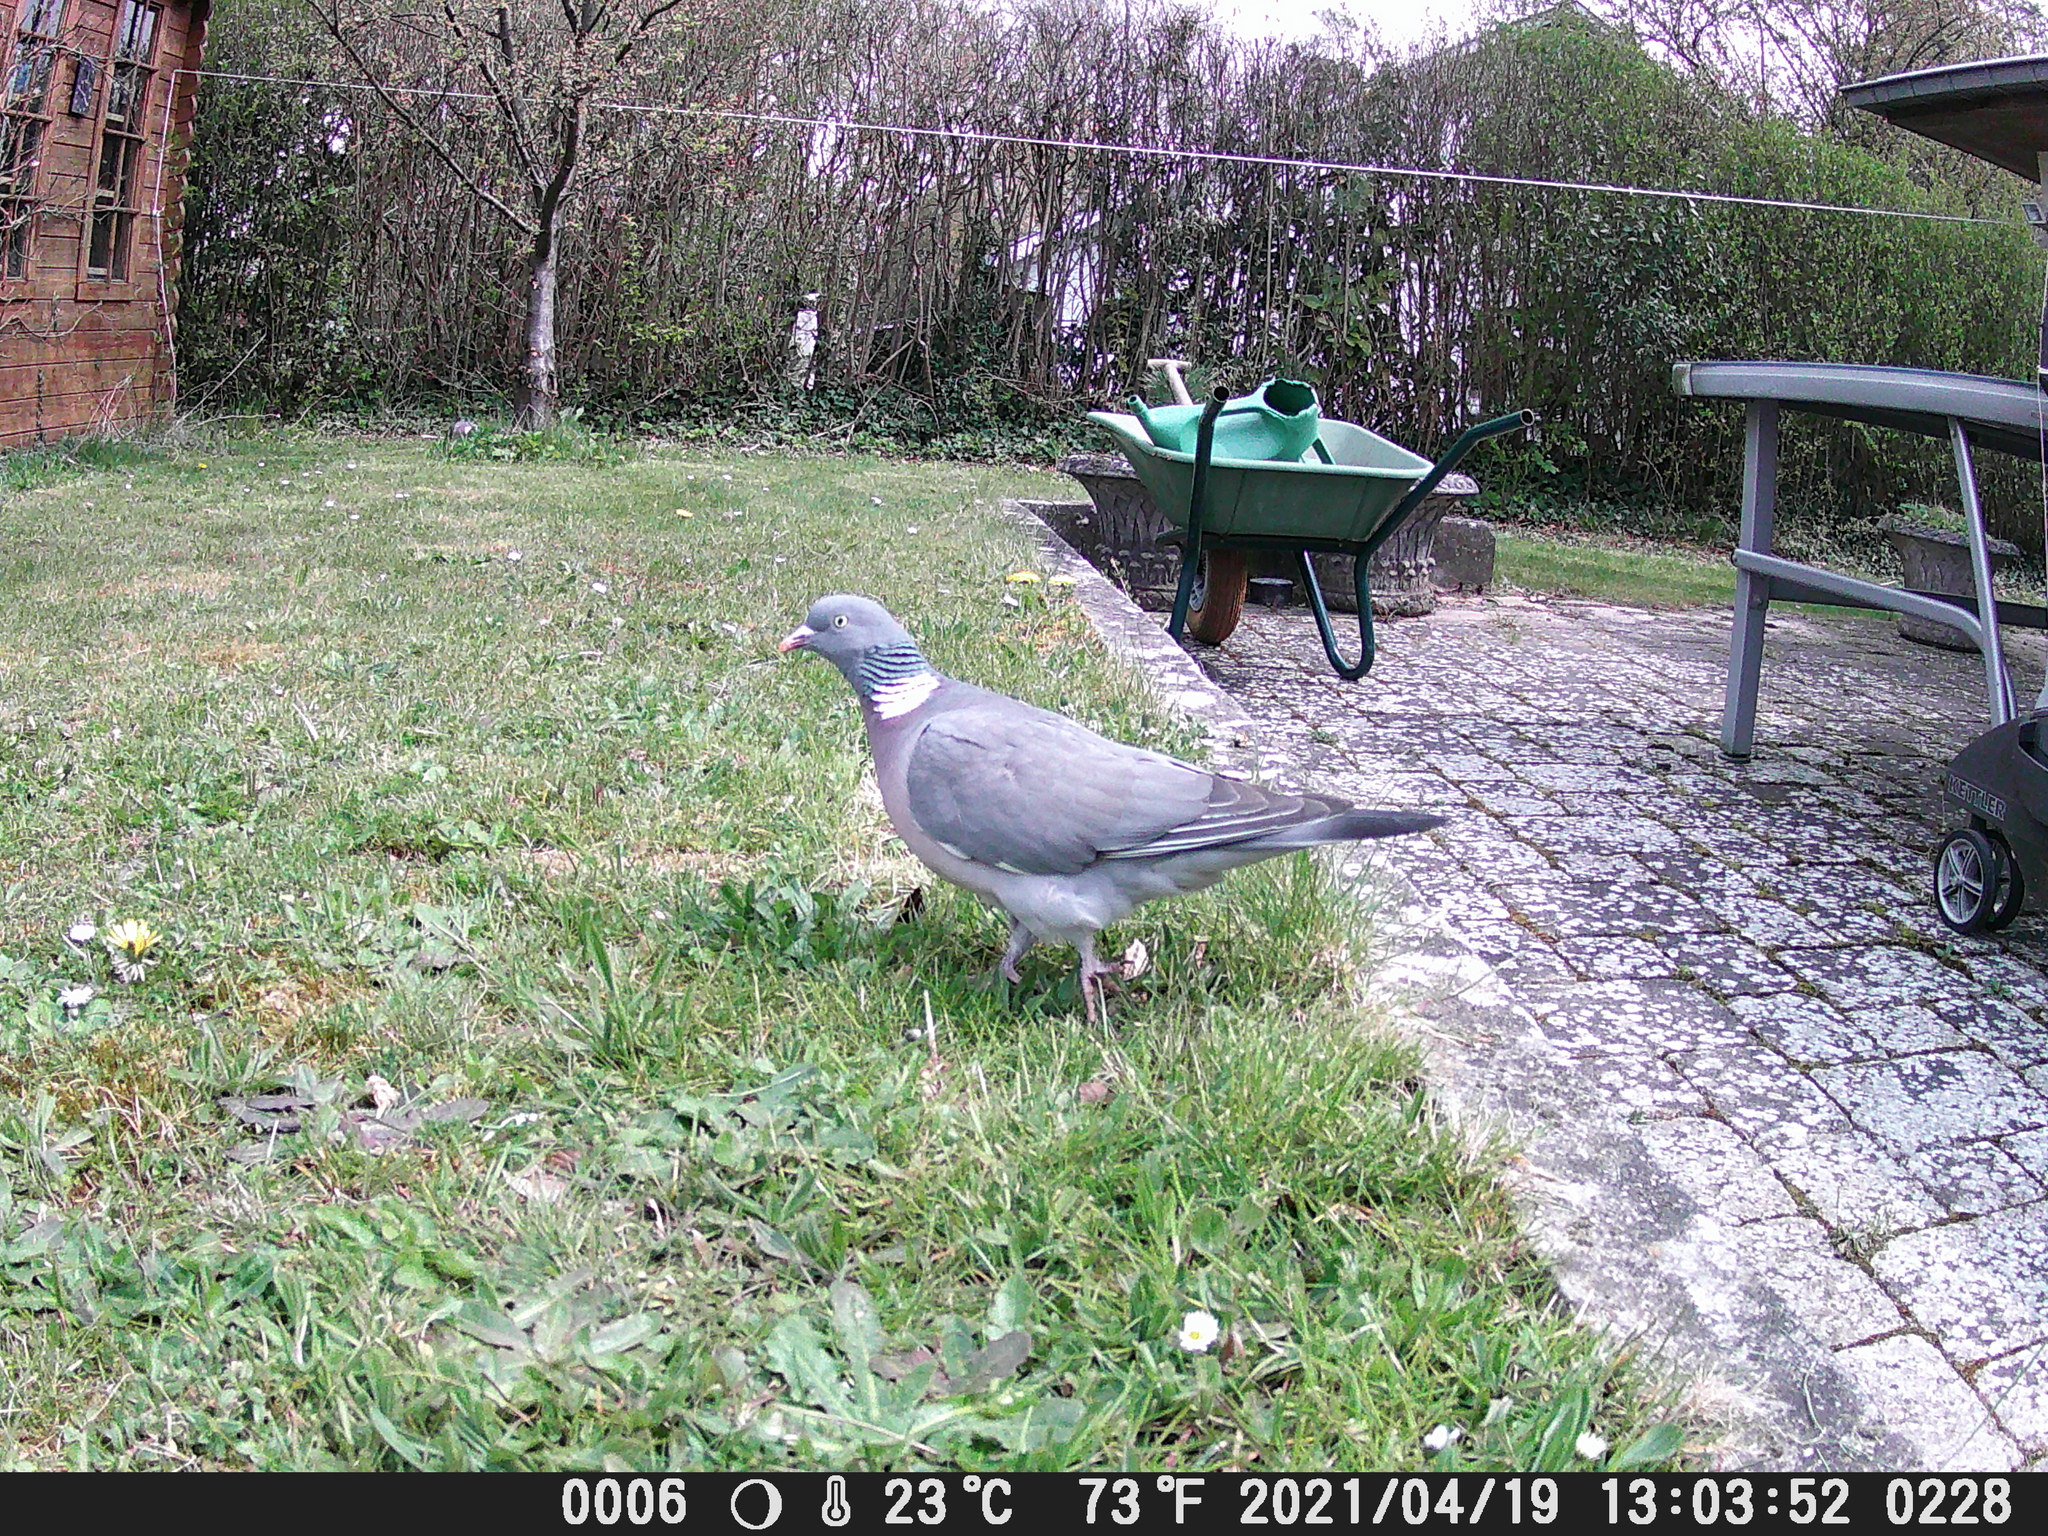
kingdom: Animalia
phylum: Chordata
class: Aves
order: Columbiformes
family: Columbidae
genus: Columba
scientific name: Columba palumbus
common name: Common wood pigeon
